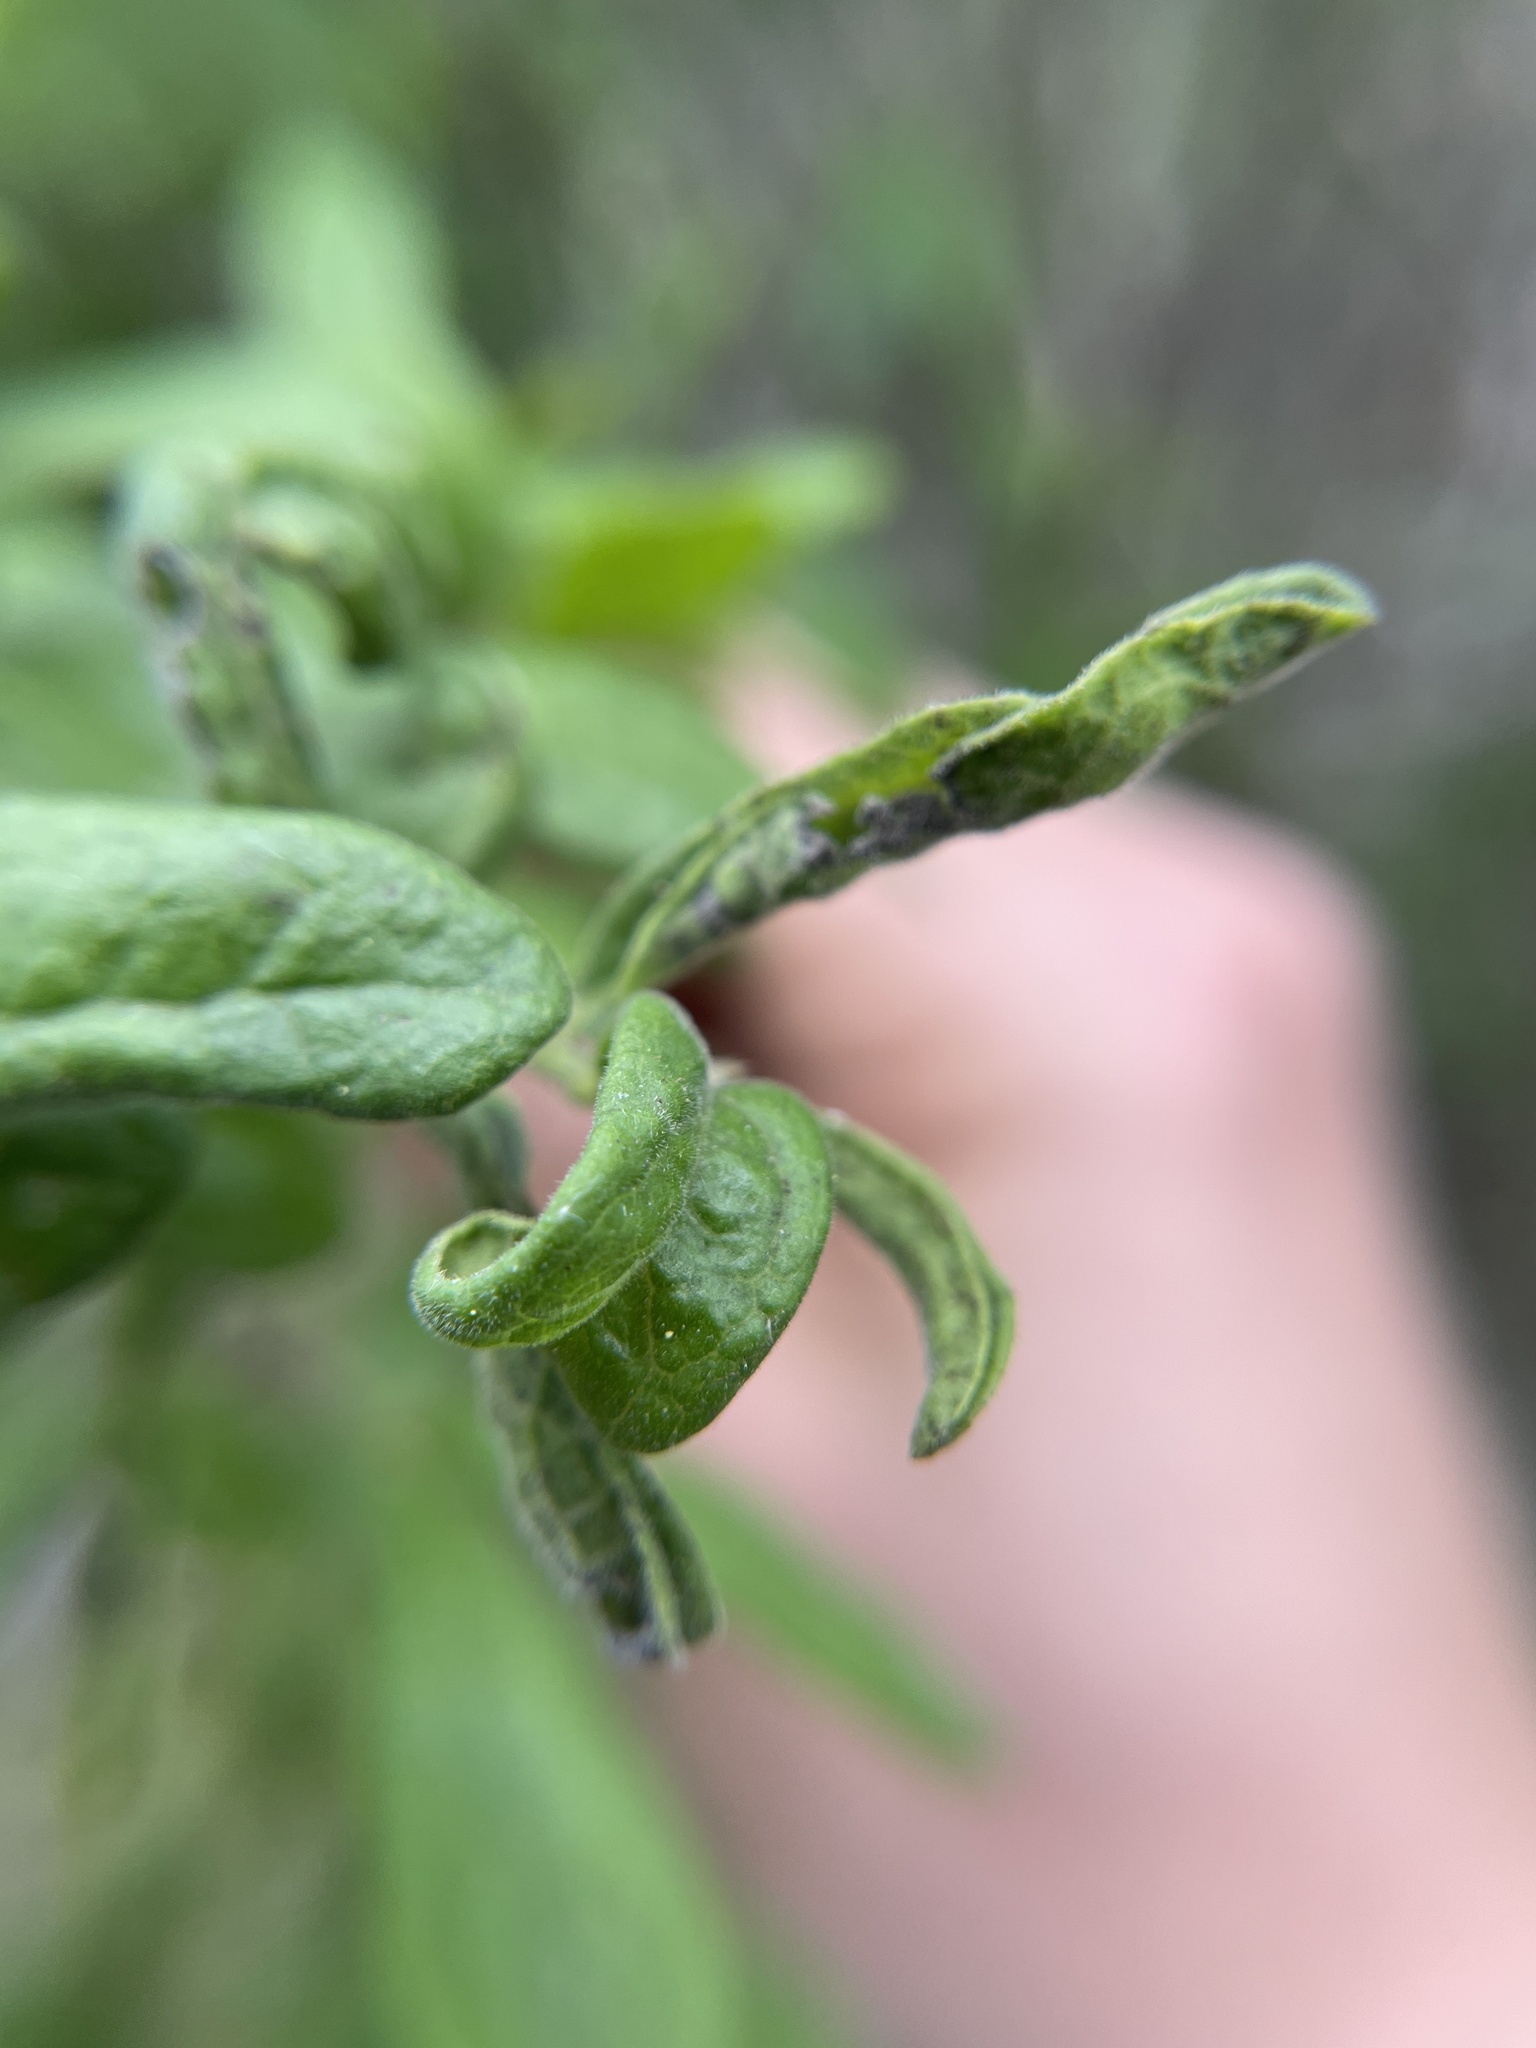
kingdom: Animalia
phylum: Arthropoda
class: Insecta
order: Hemiptera
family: Triozidae
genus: Baeoalitriozus
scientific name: Baeoalitriozus diospyri
